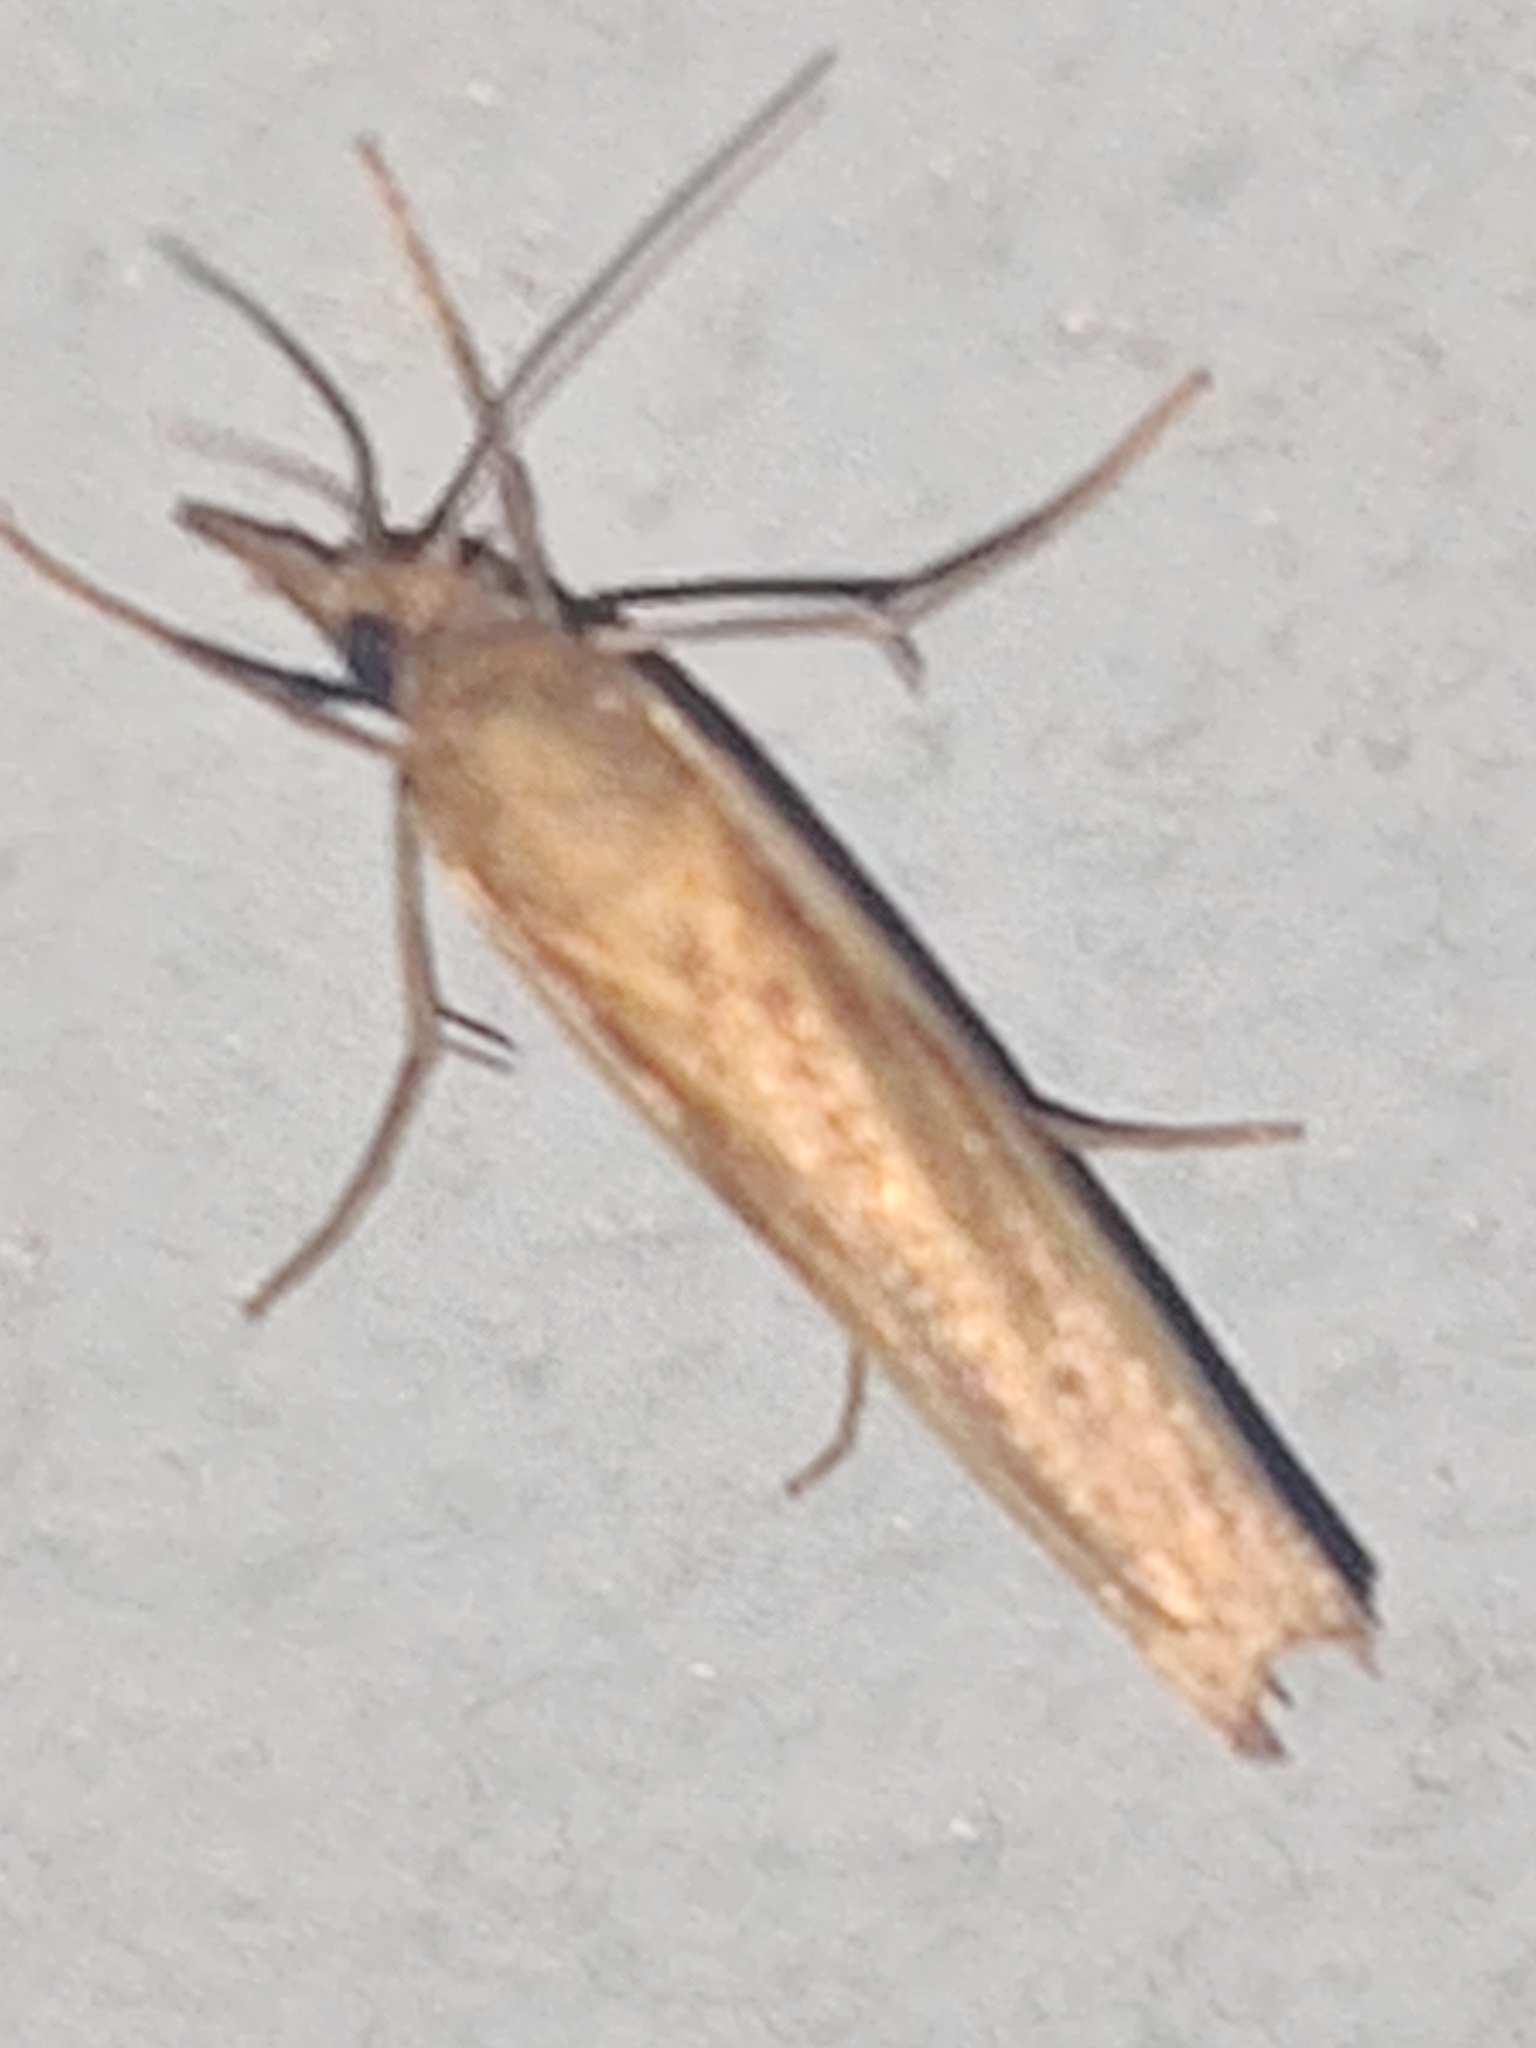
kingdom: Animalia
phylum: Arthropoda
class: Insecta
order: Lepidoptera
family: Crambidae
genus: Agriphila
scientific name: Agriphila tristellus
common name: Common grass-veneer
